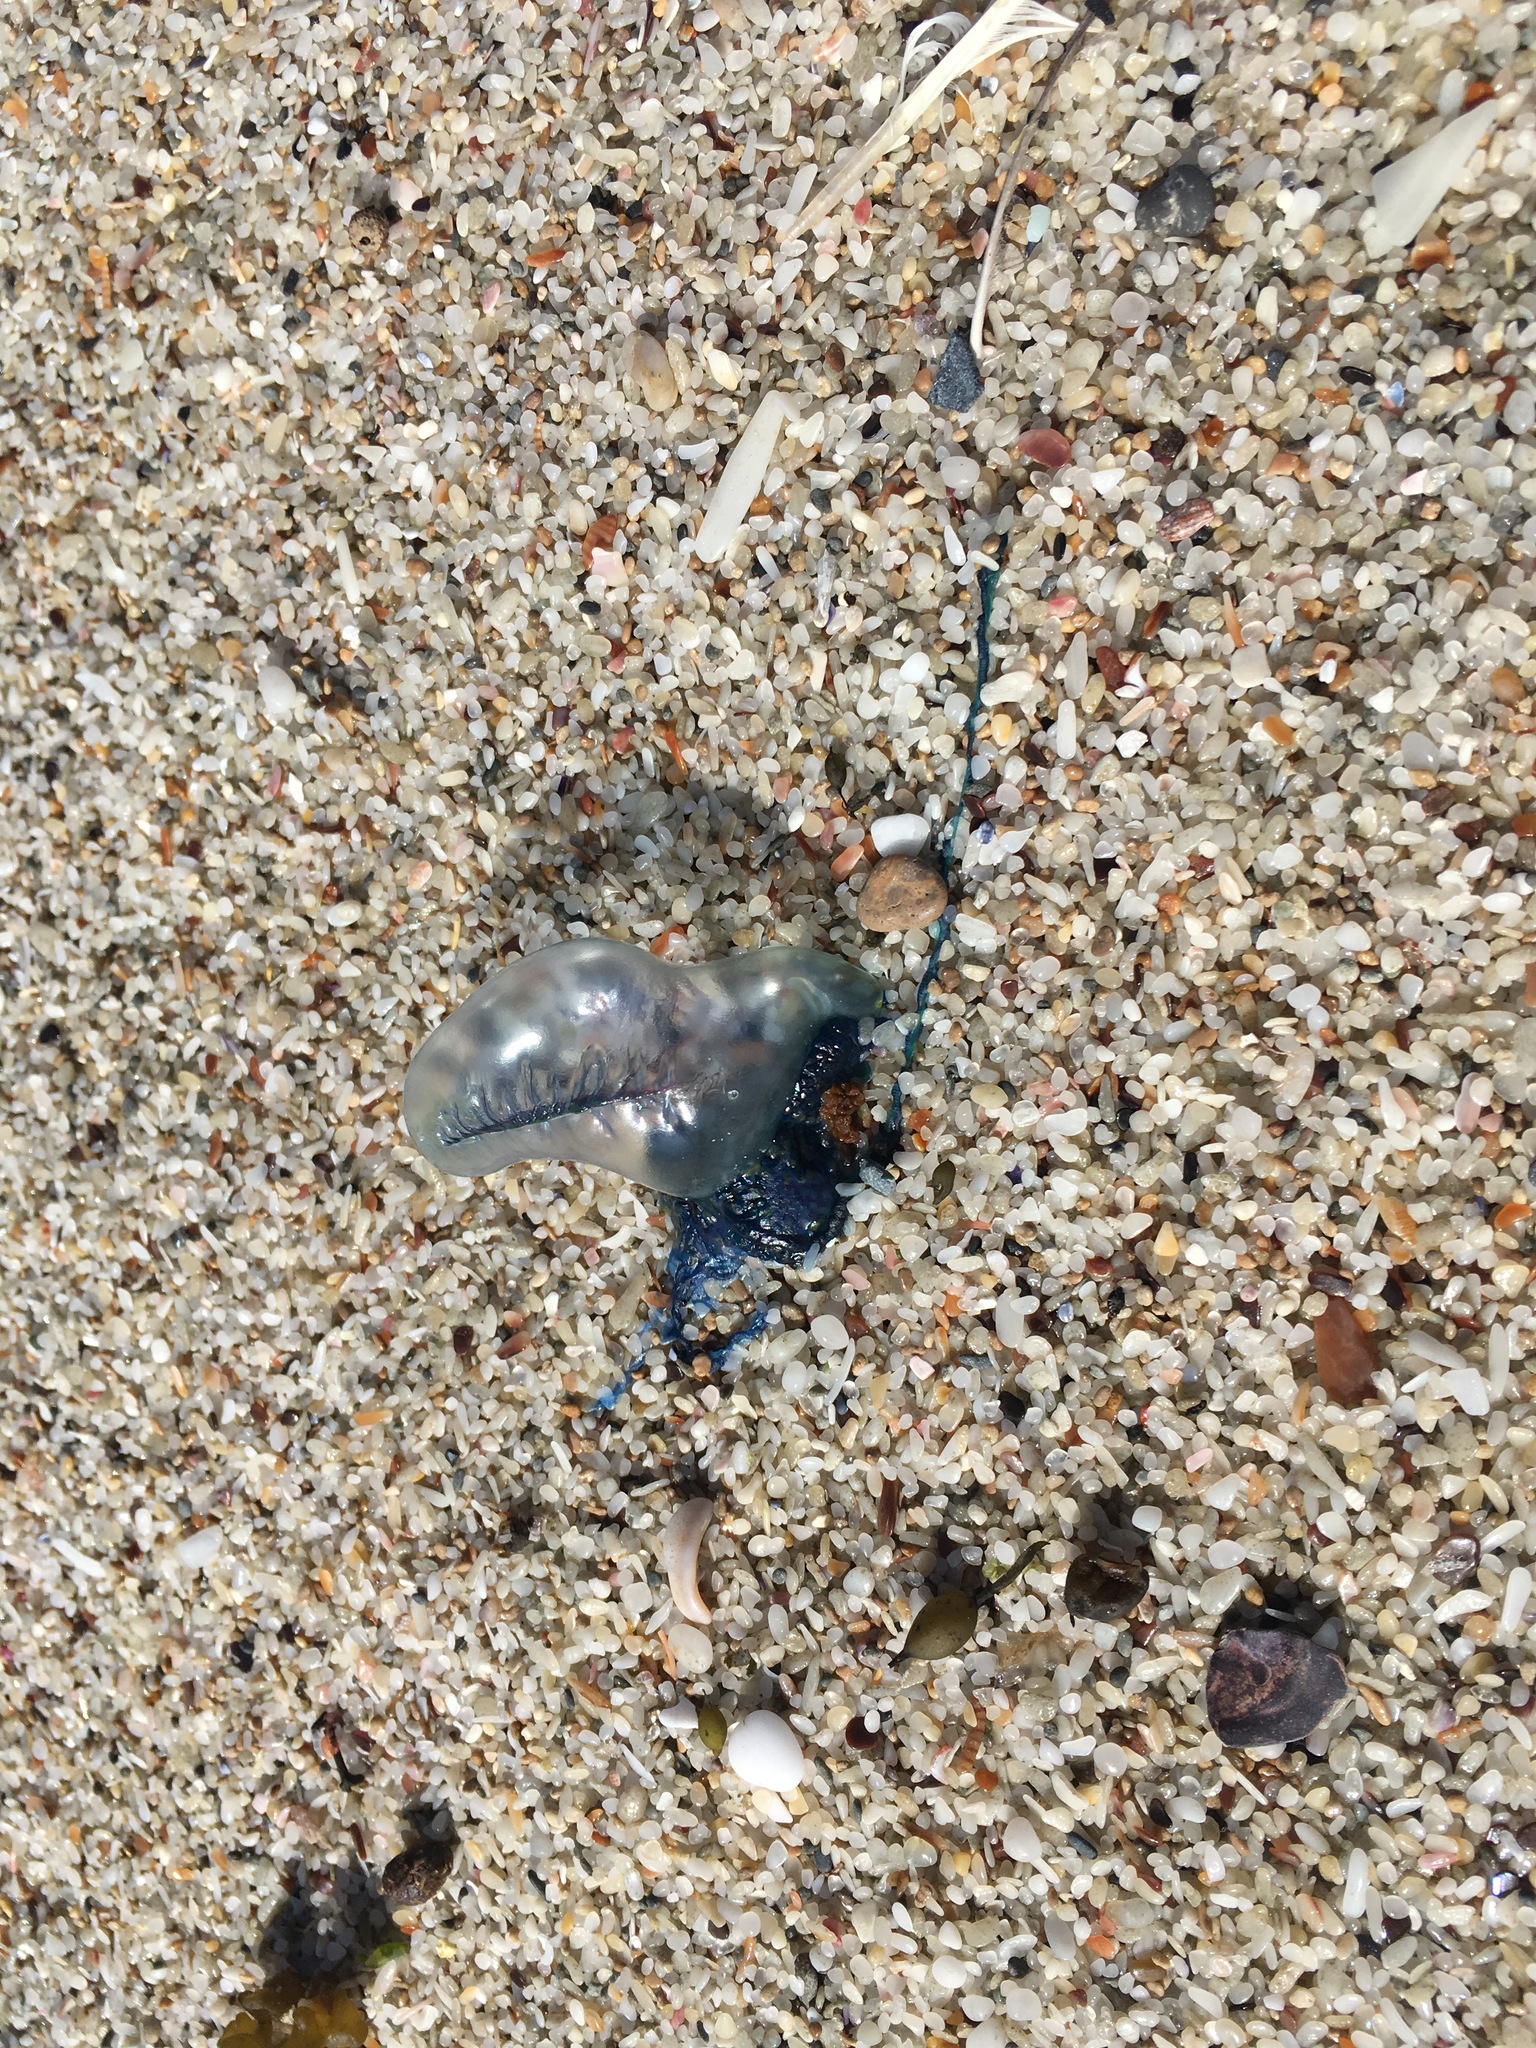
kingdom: Animalia
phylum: Cnidaria
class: Hydrozoa
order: Siphonophorae
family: Physaliidae
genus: Physalia
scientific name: Physalia physalis
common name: Portuguese man-of-war
